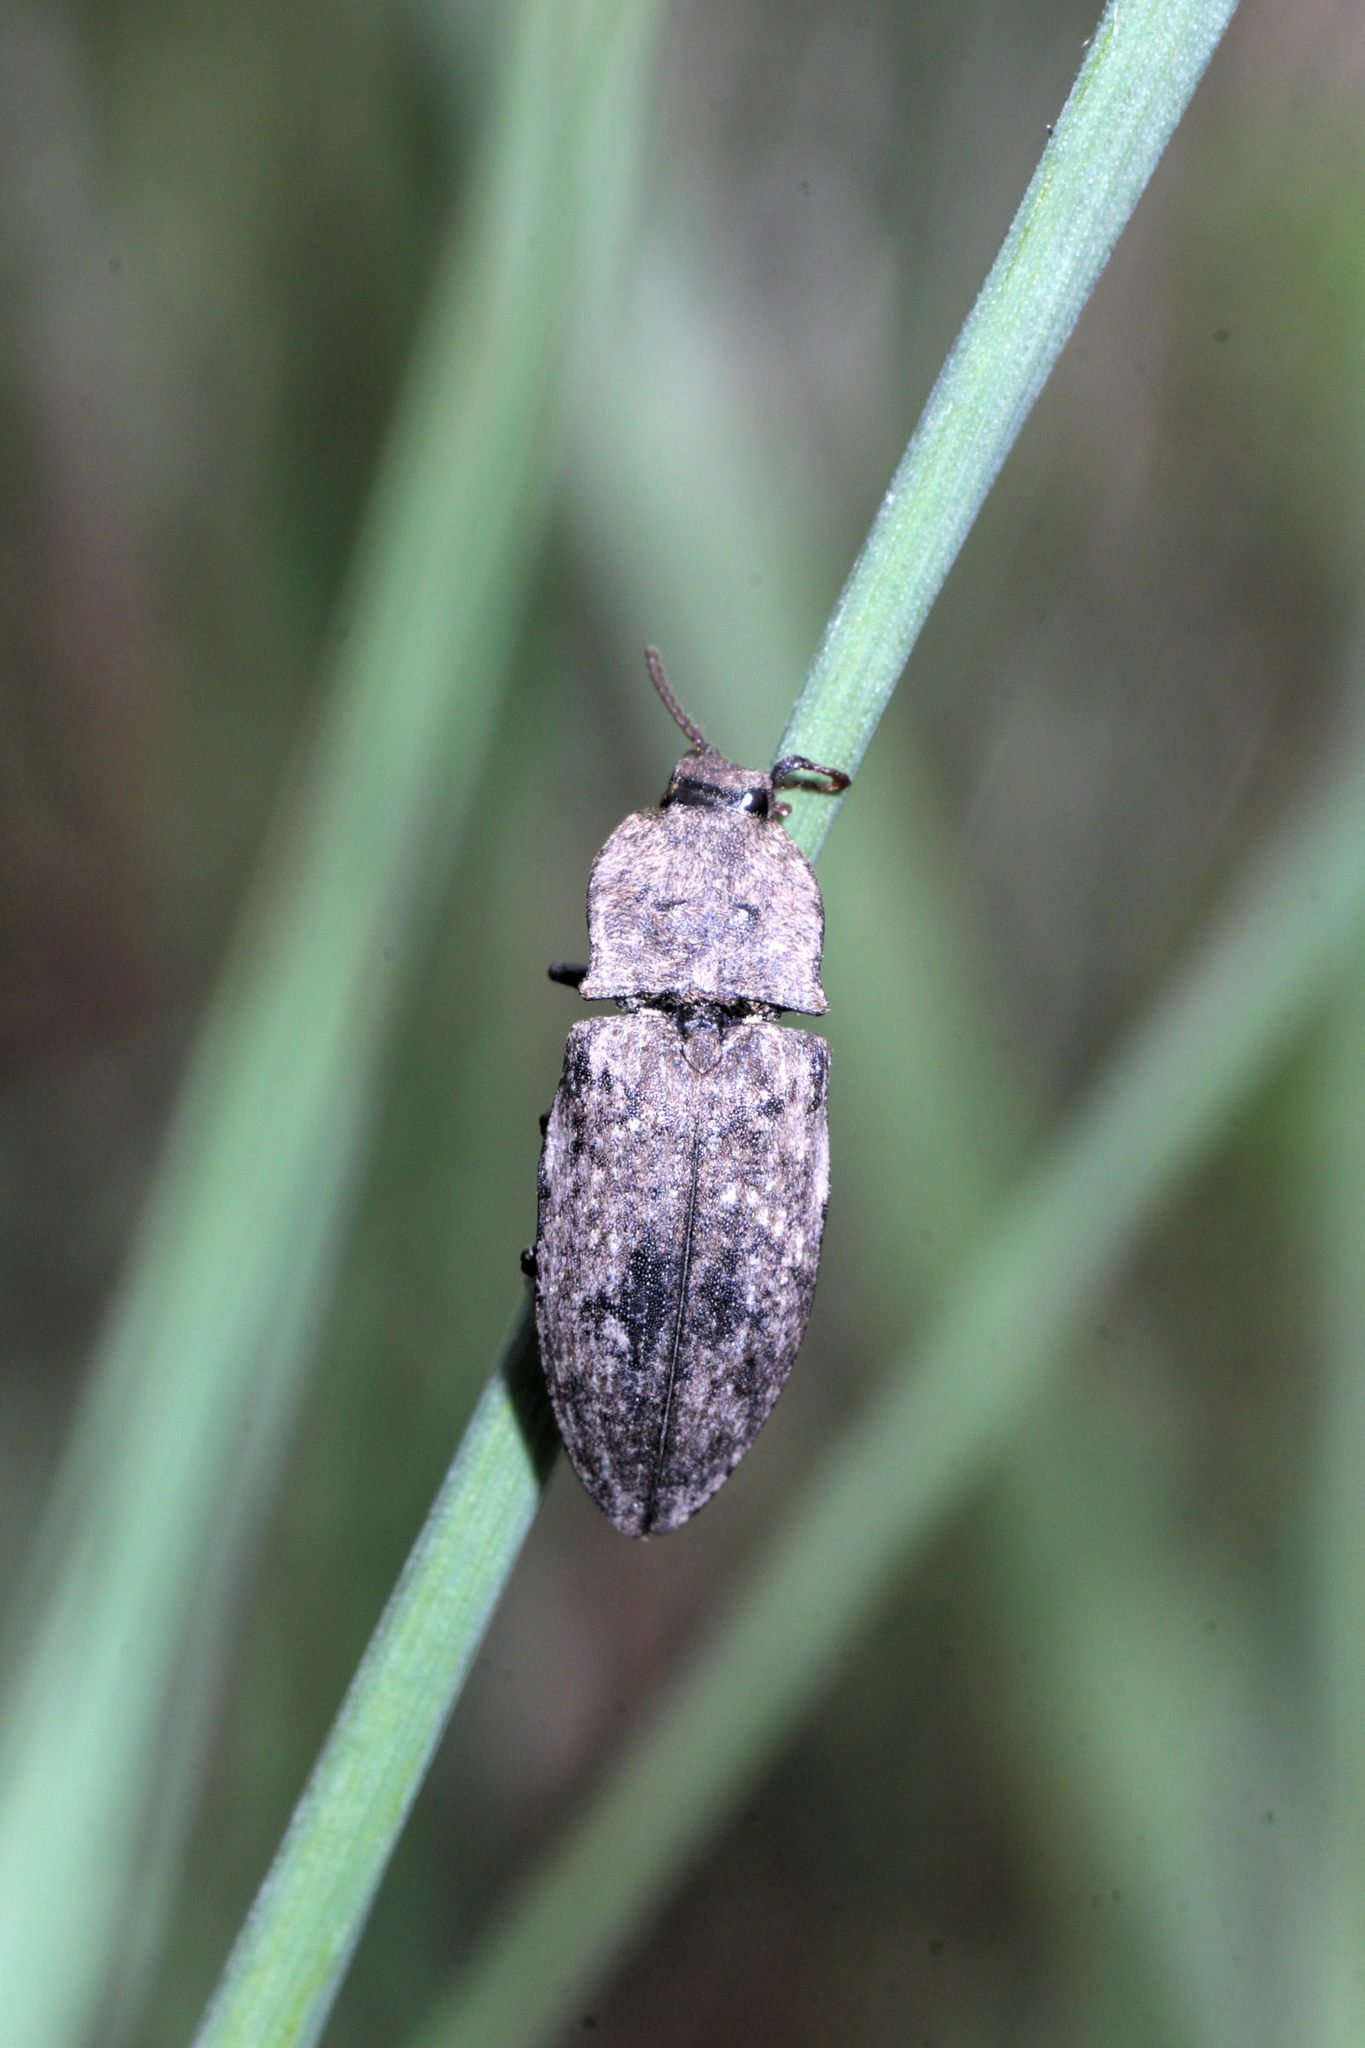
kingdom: Animalia
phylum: Arthropoda
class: Insecta
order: Coleoptera
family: Elateridae
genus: Agrypnus
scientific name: Agrypnus murinus
